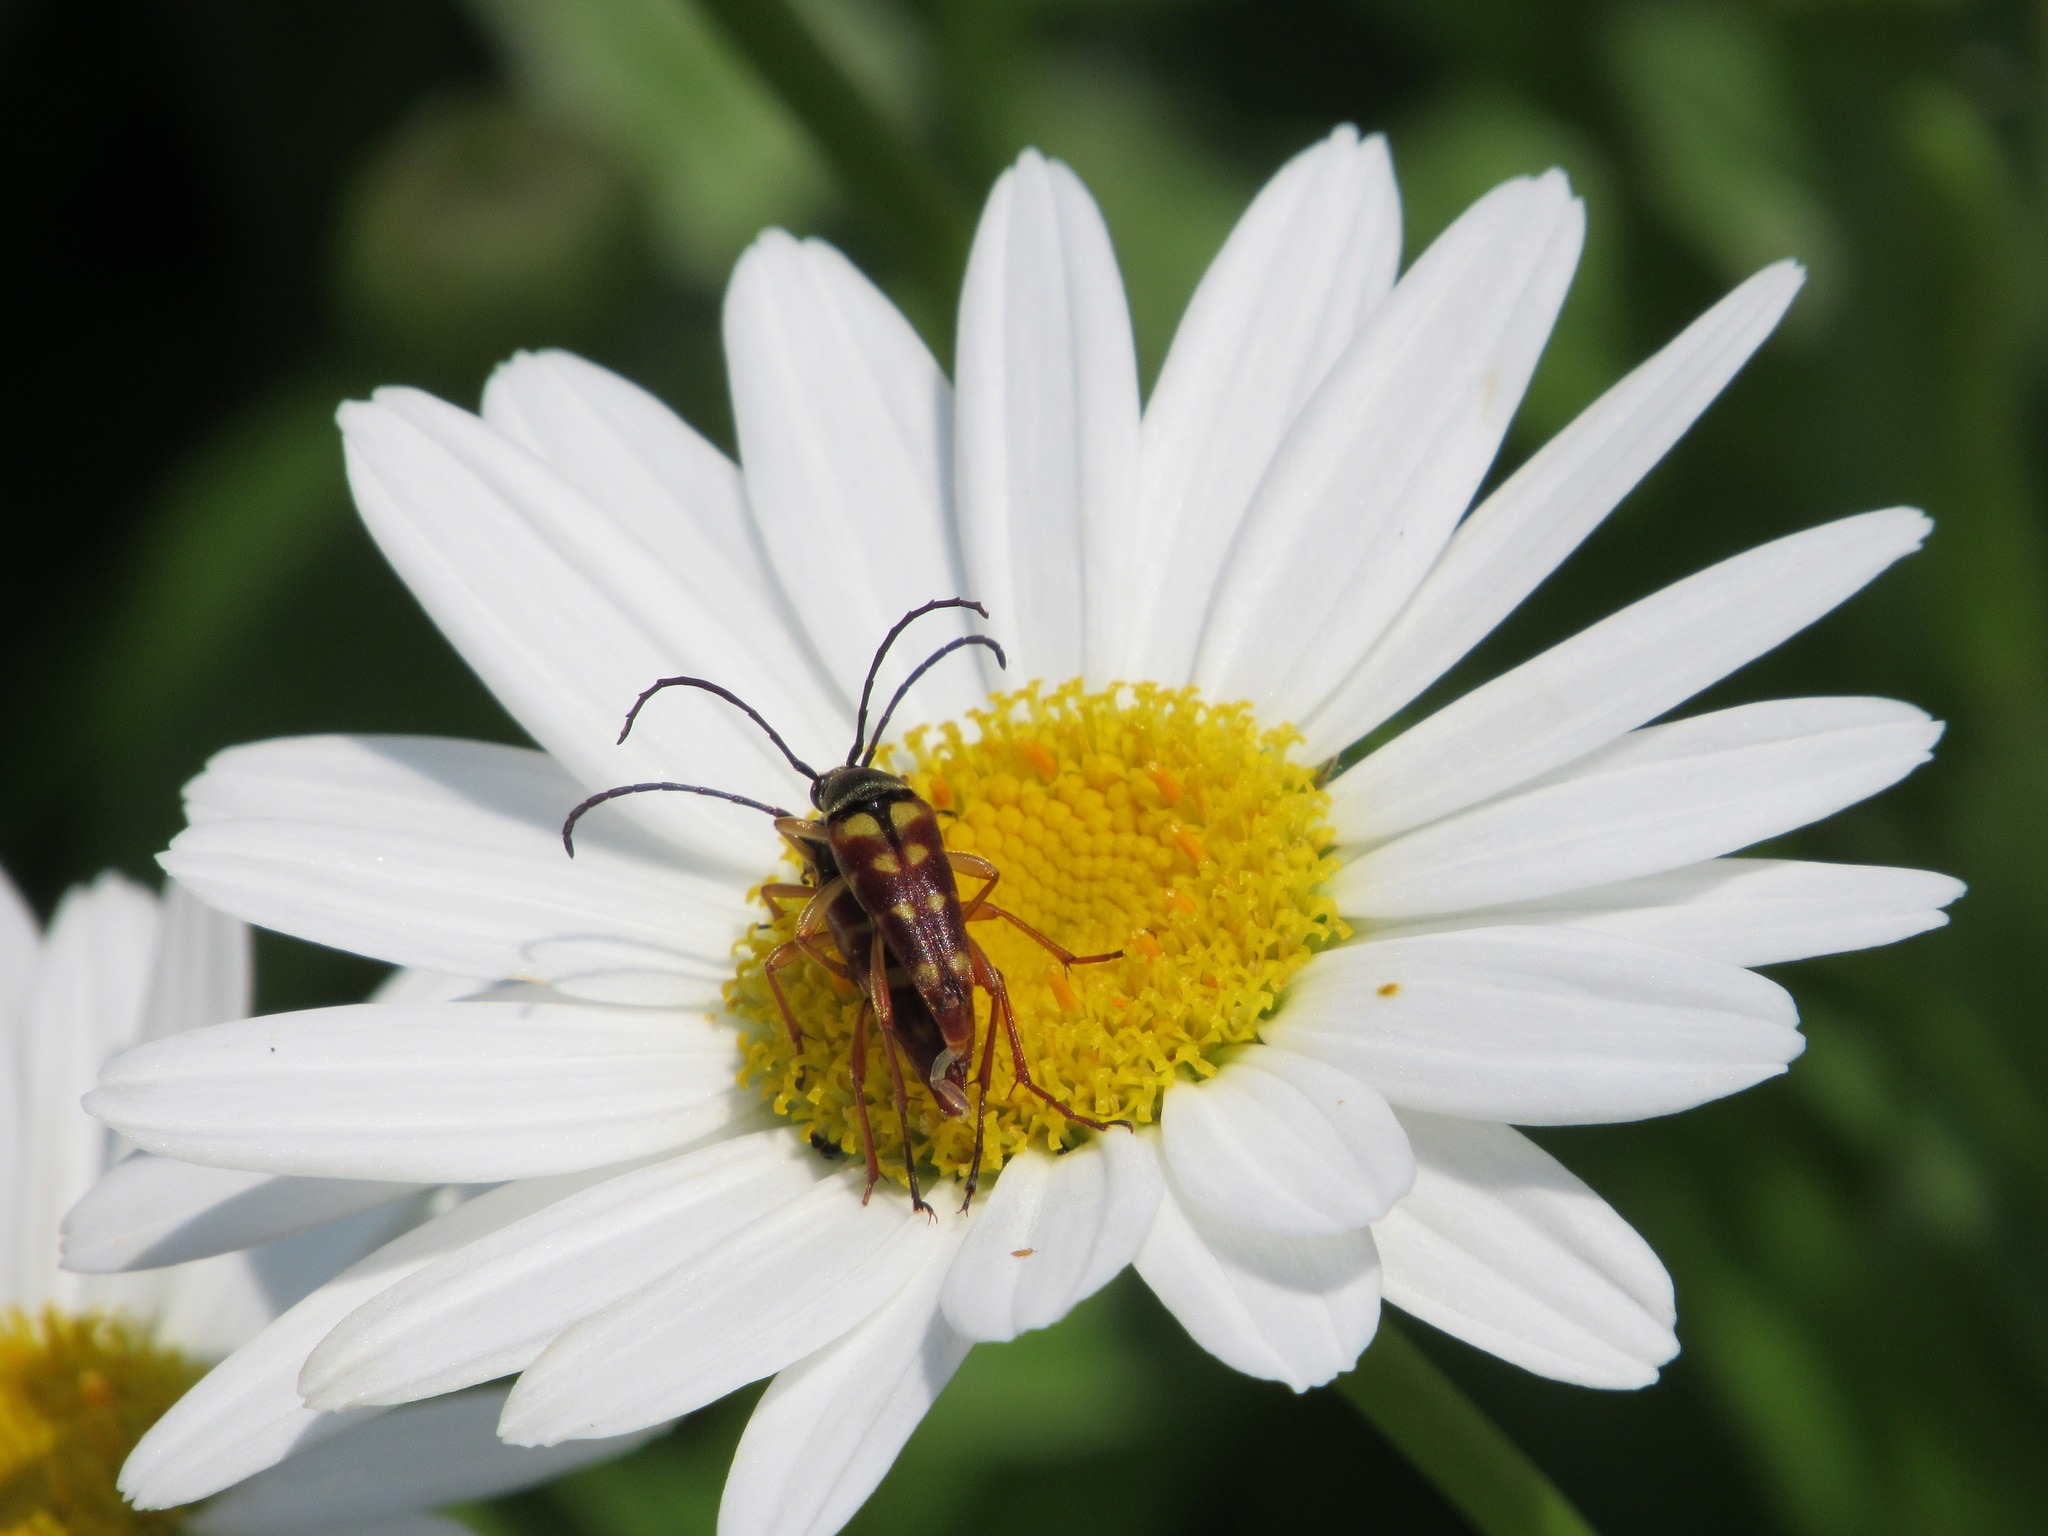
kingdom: Animalia
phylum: Arthropoda
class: Insecta
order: Coleoptera
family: Cerambycidae
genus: Typocerus
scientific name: Typocerus velutinus
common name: Banded longhorn beetle
